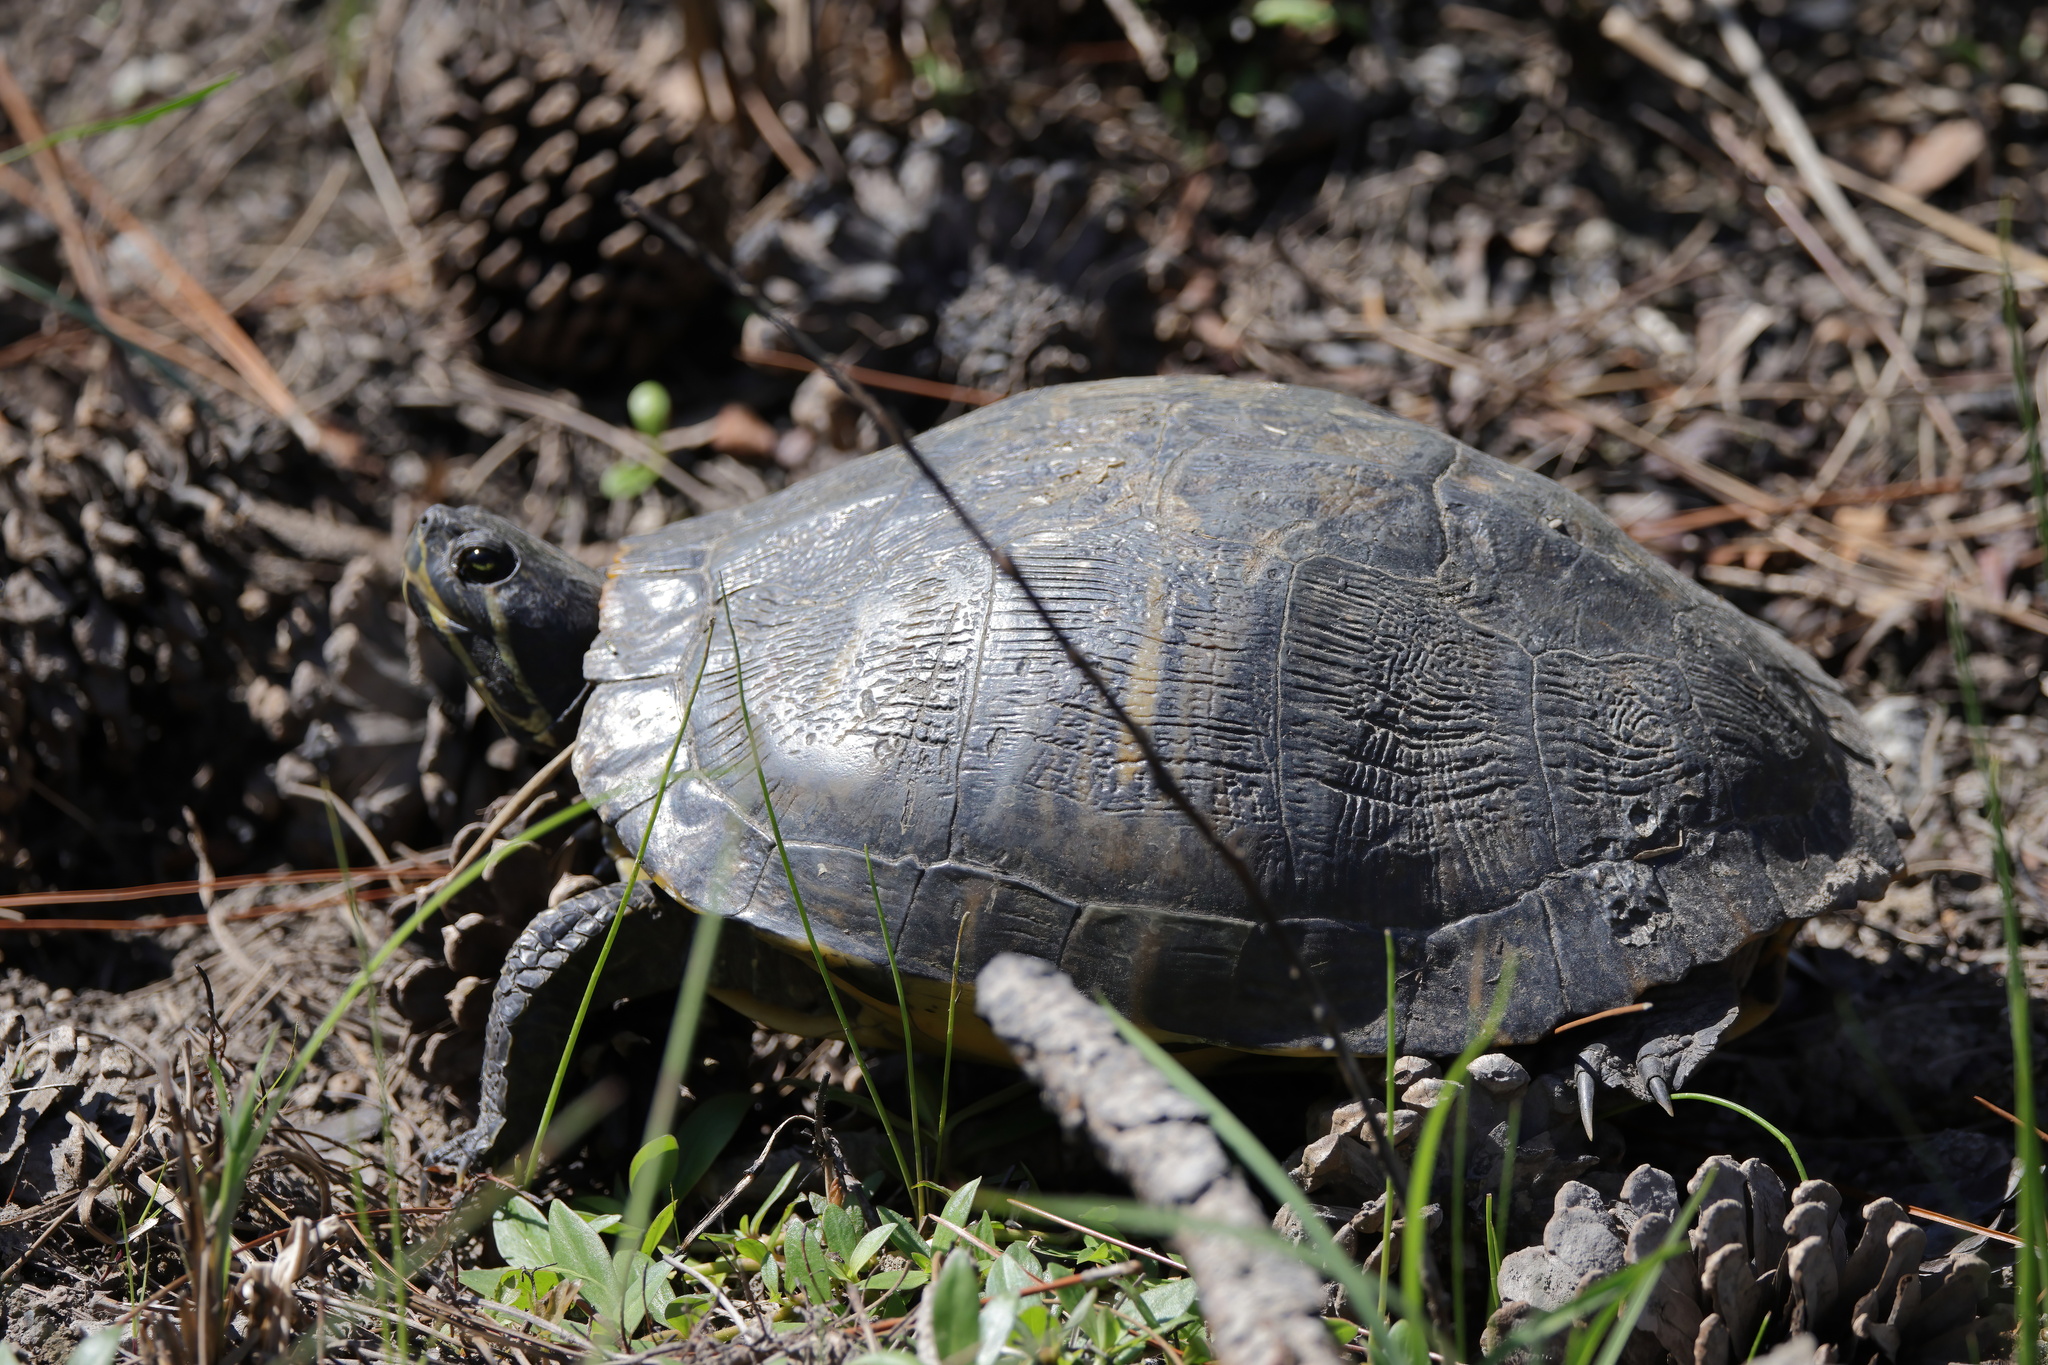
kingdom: Animalia
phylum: Chordata
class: Testudines
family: Emydidae
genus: Trachemys
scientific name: Trachemys scripta
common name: Slider
